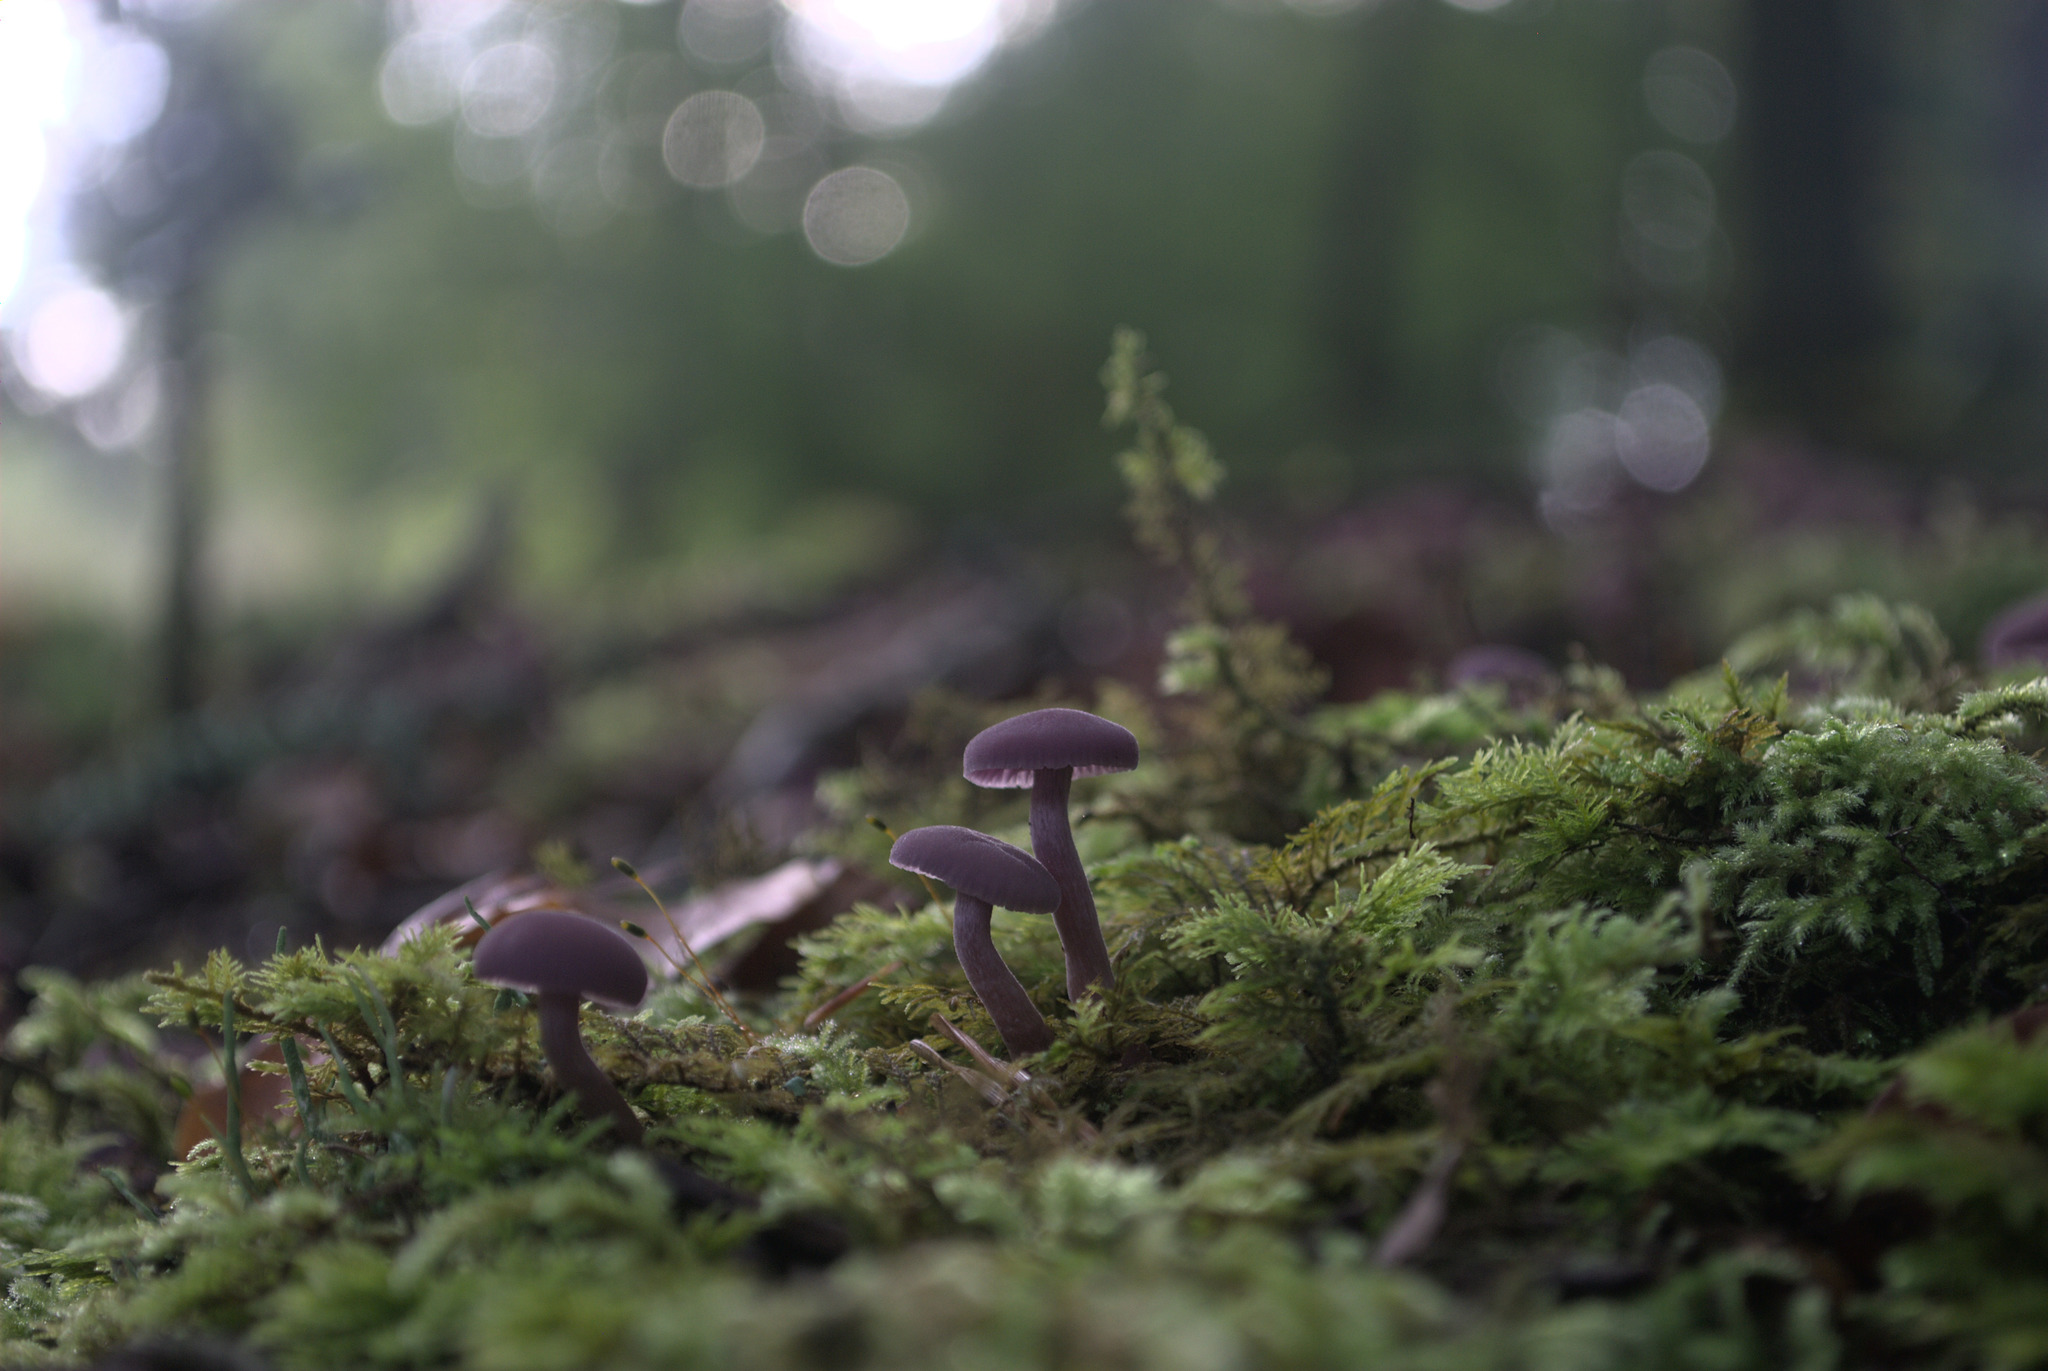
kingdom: Fungi
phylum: Basidiomycota
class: Agaricomycetes
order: Agaricales
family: Hydnangiaceae
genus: Laccaria
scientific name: Laccaria amethystina
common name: Amethyst deceiver
